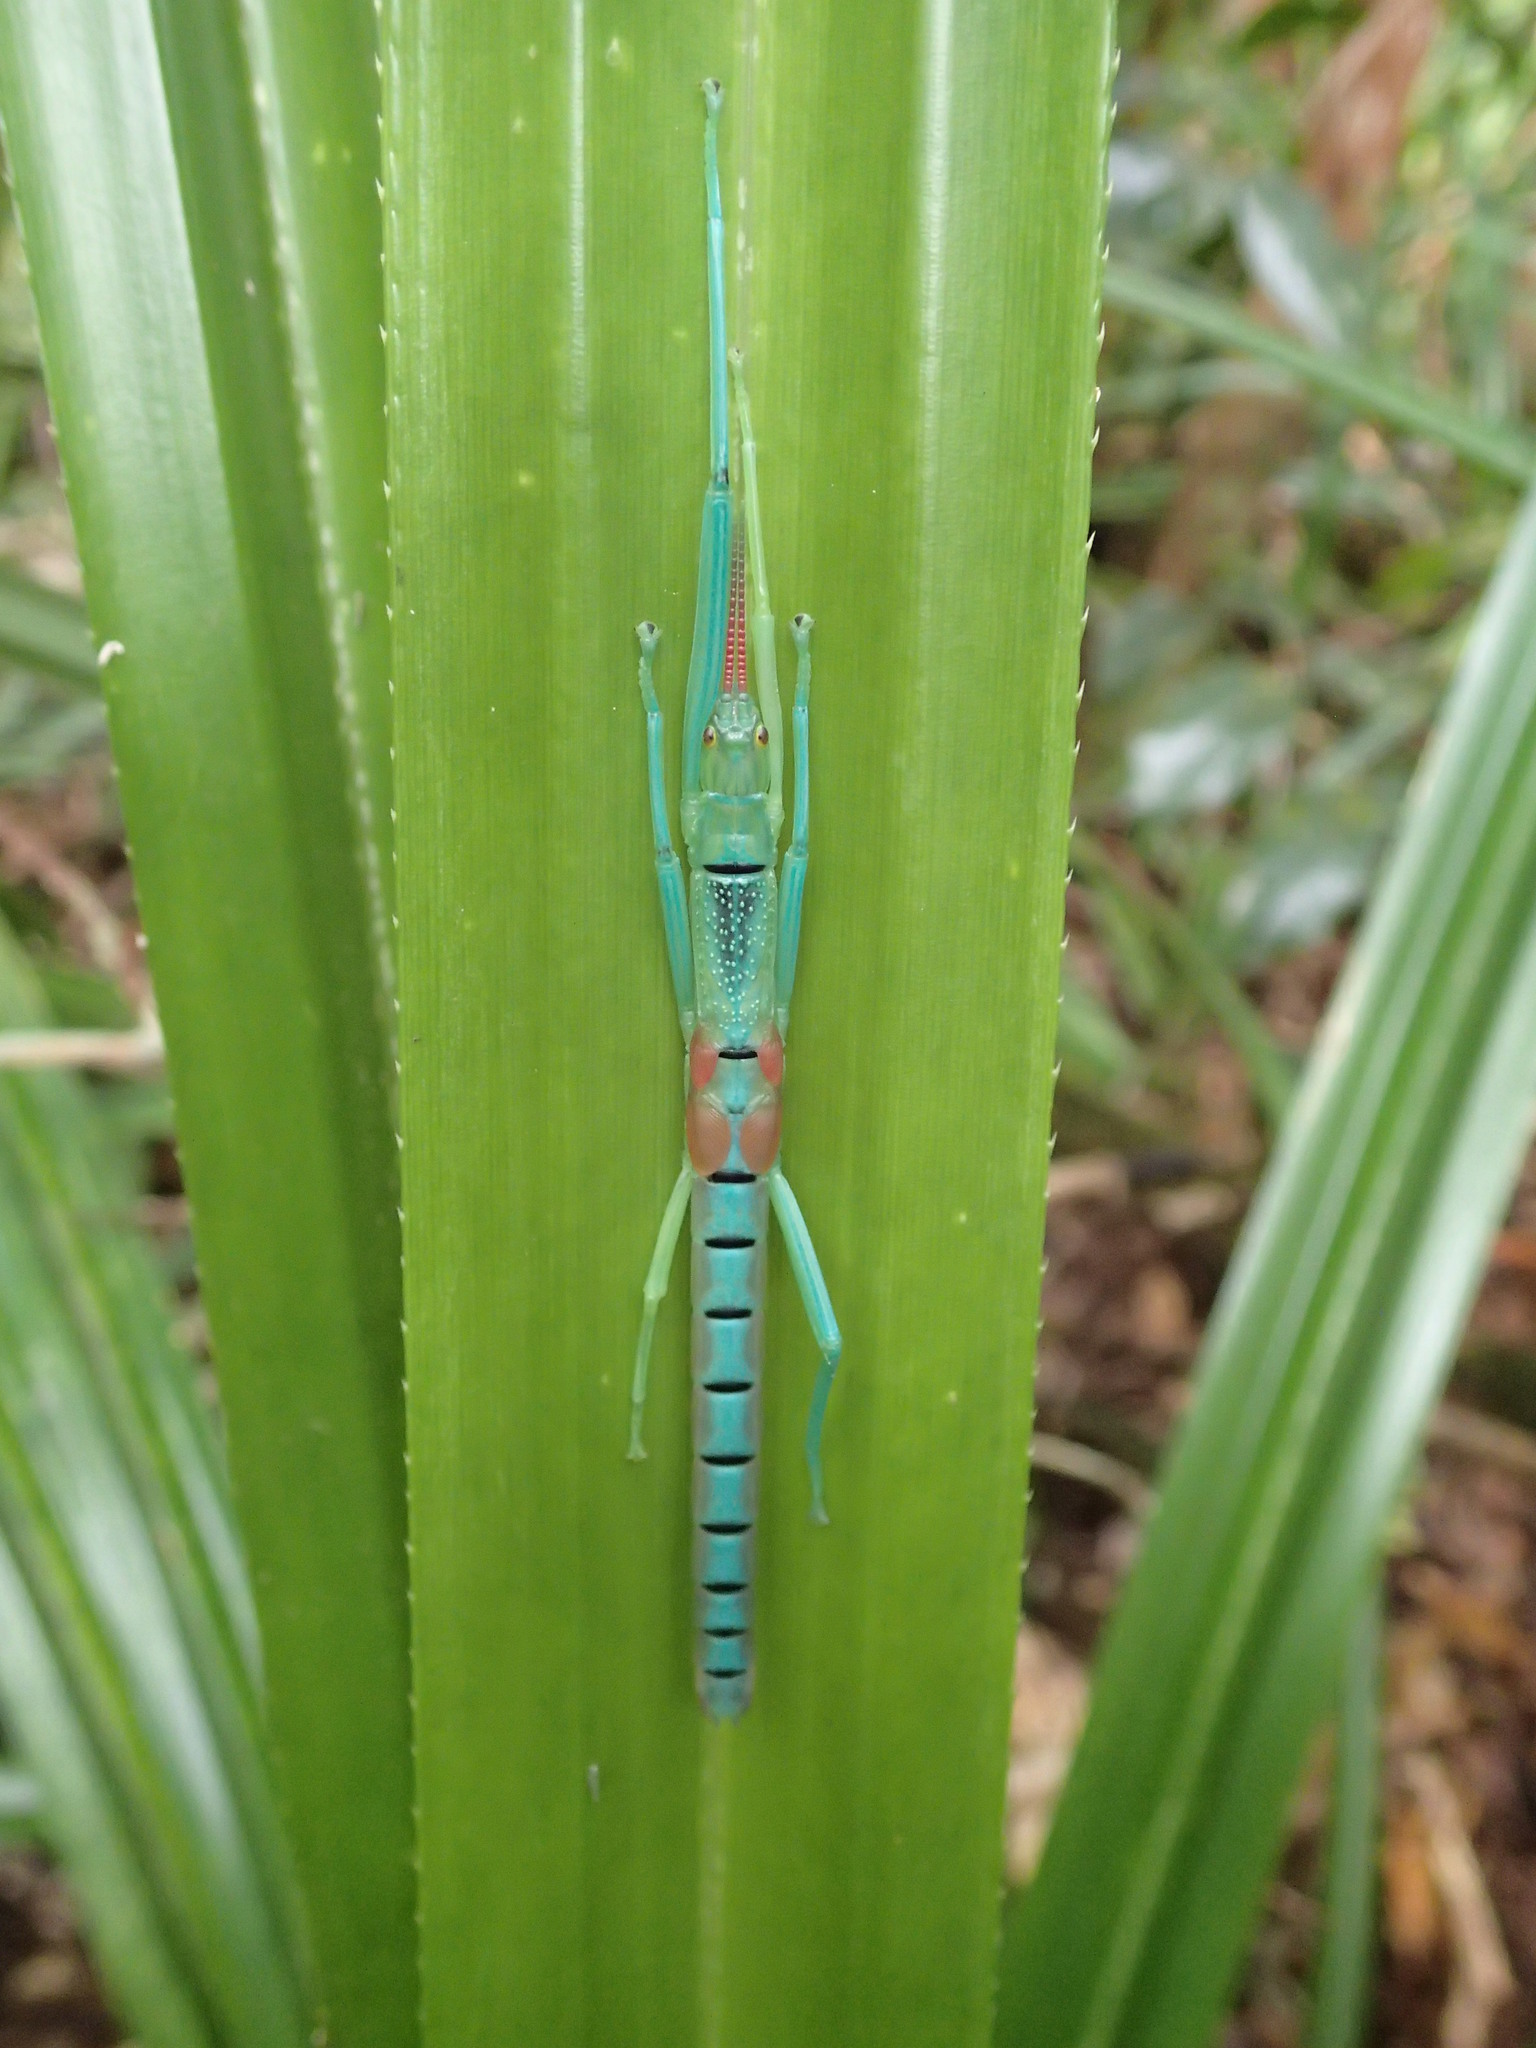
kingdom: Animalia
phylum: Arthropoda
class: Insecta
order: Phasmida
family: Phasmatidae
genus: Megacrania
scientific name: Megacrania batesii
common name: Peppermint stick-insect
